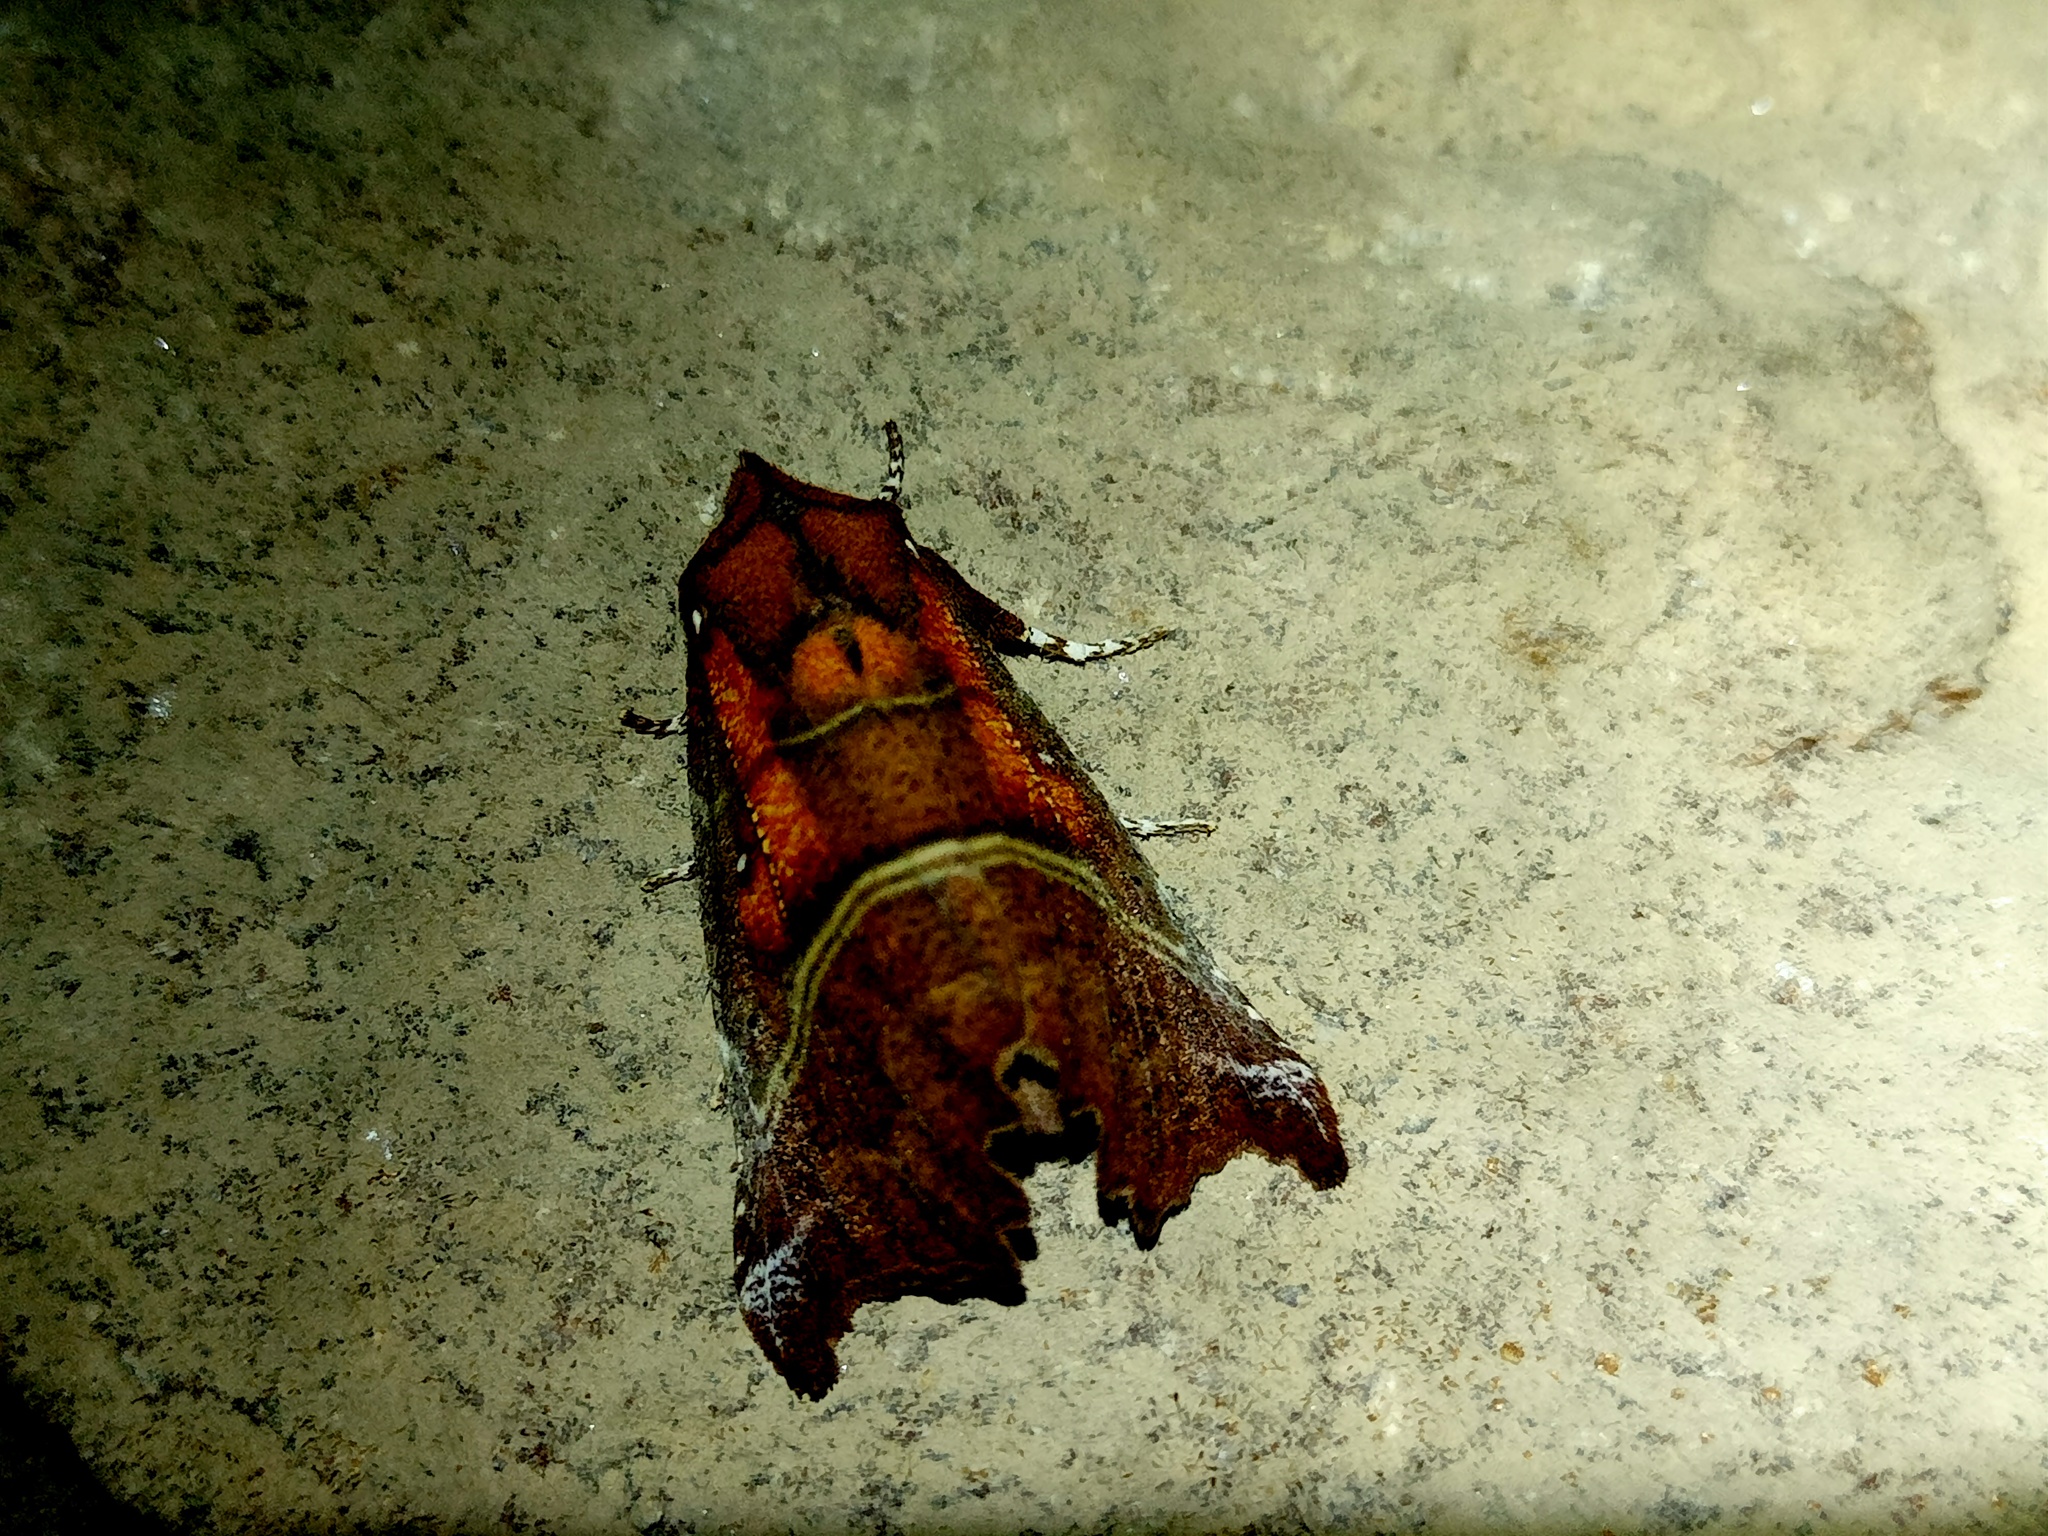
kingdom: Animalia
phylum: Arthropoda
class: Insecta
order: Lepidoptera
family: Erebidae
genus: Scoliopteryx
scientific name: Scoliopteryx libatrix
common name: Herald
